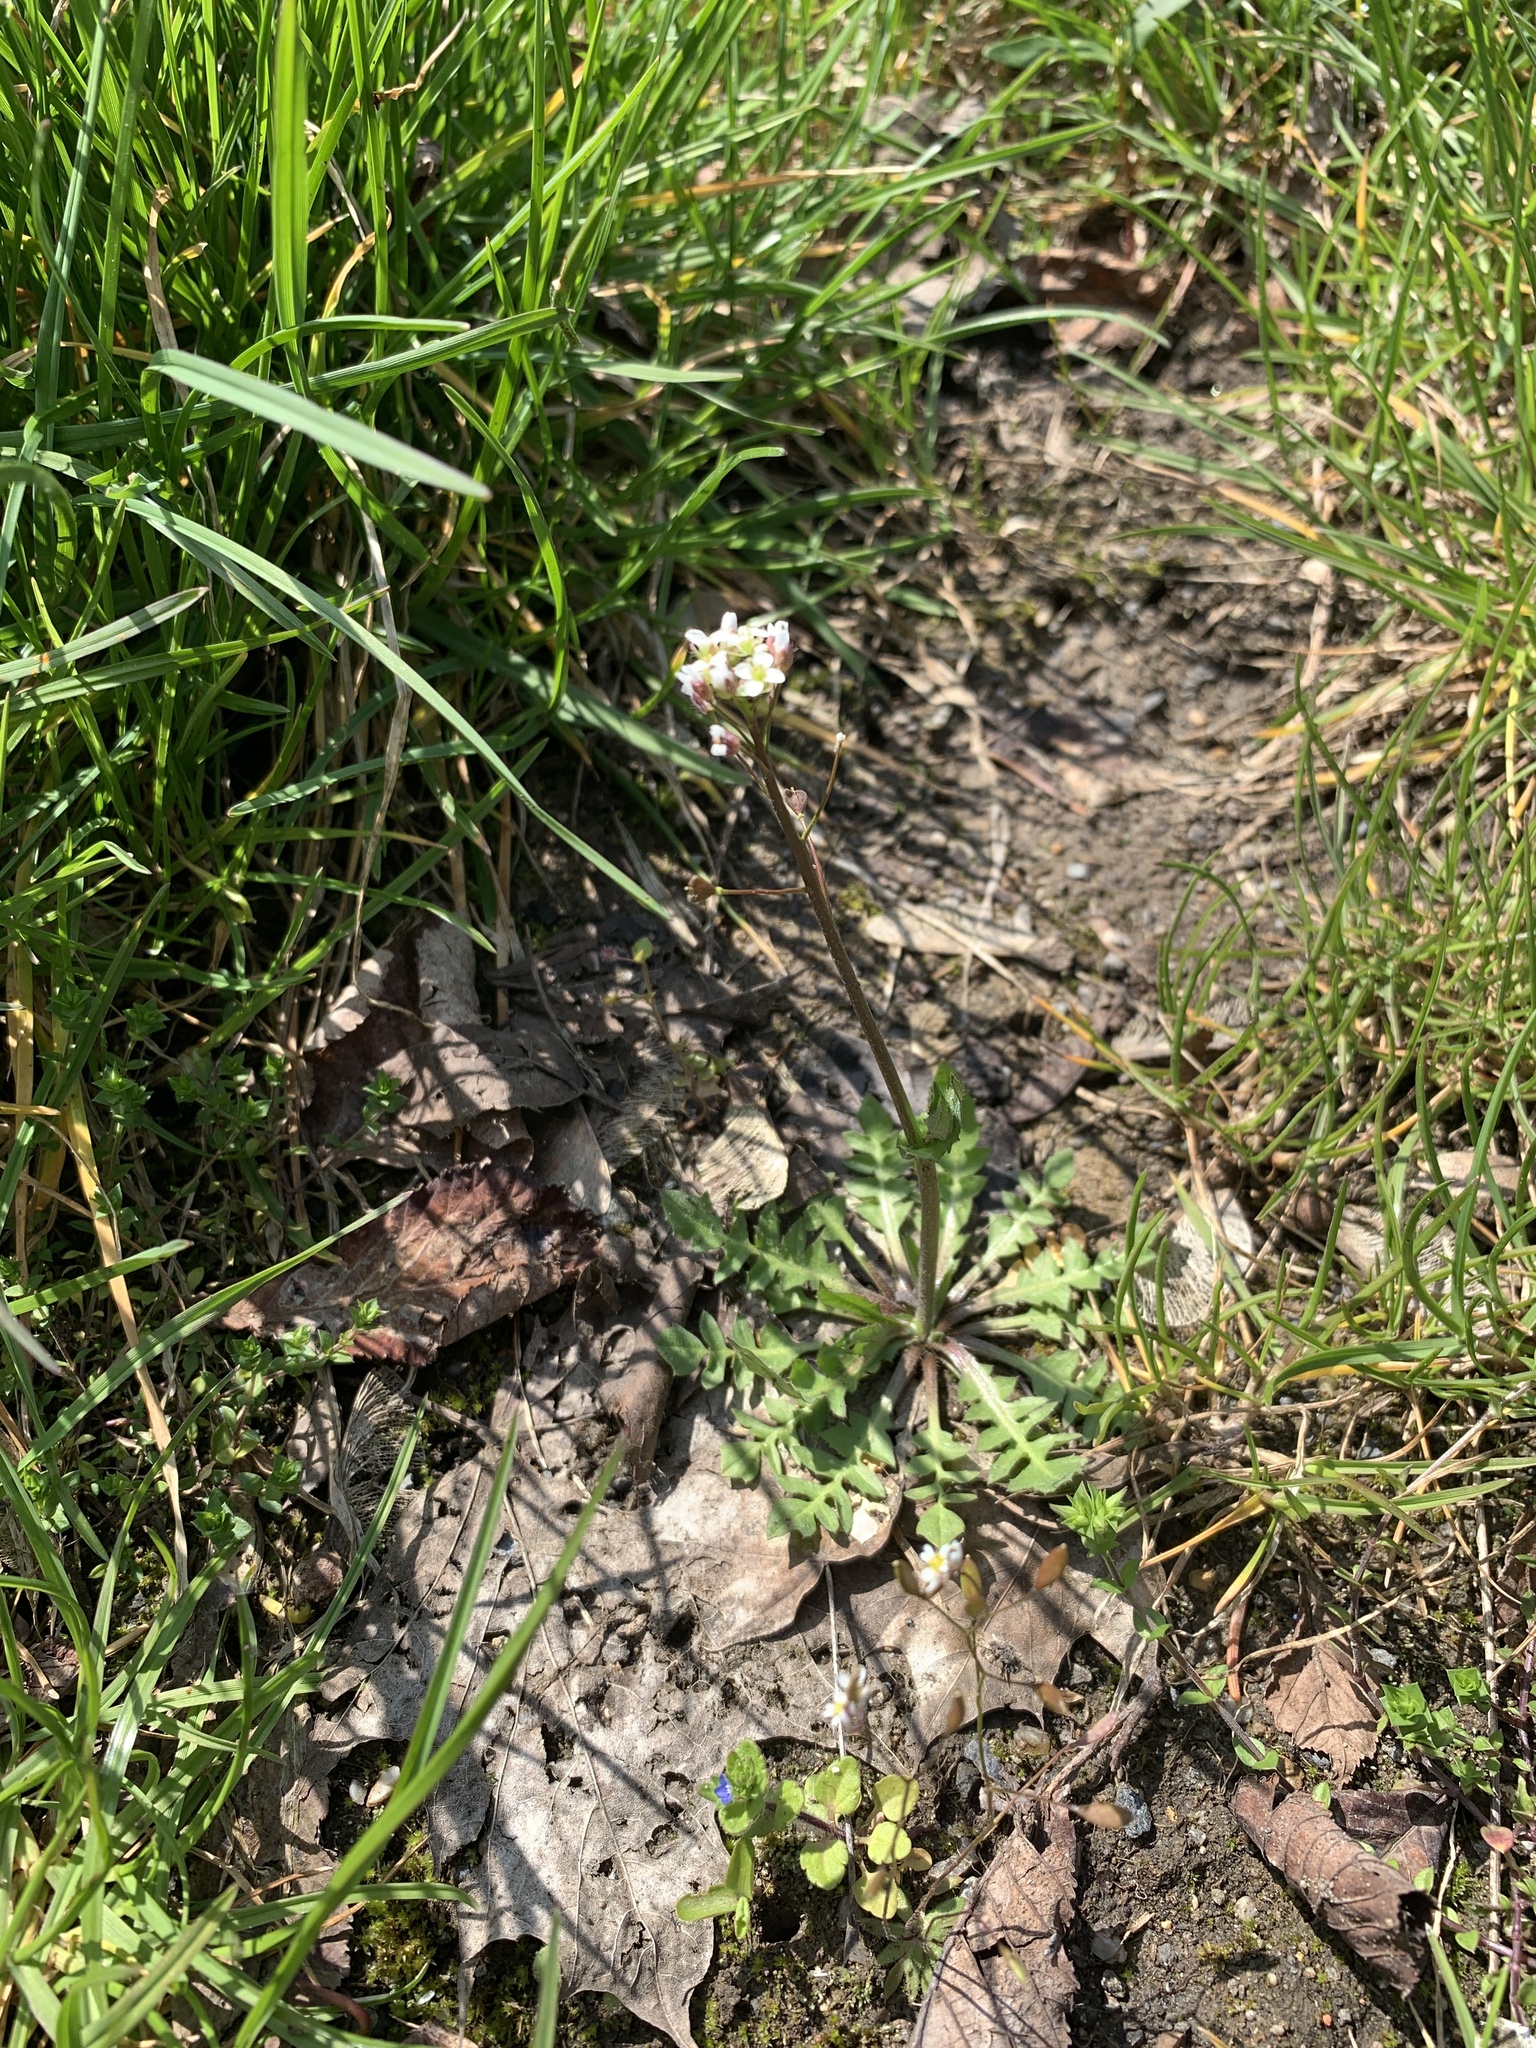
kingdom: Plantae
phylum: Tracheophyta
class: Magnoliopsida
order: Brassicales
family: Brassicaceae
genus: Capsella
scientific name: Capsella bursa-pastoris
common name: Shepherd's purse
